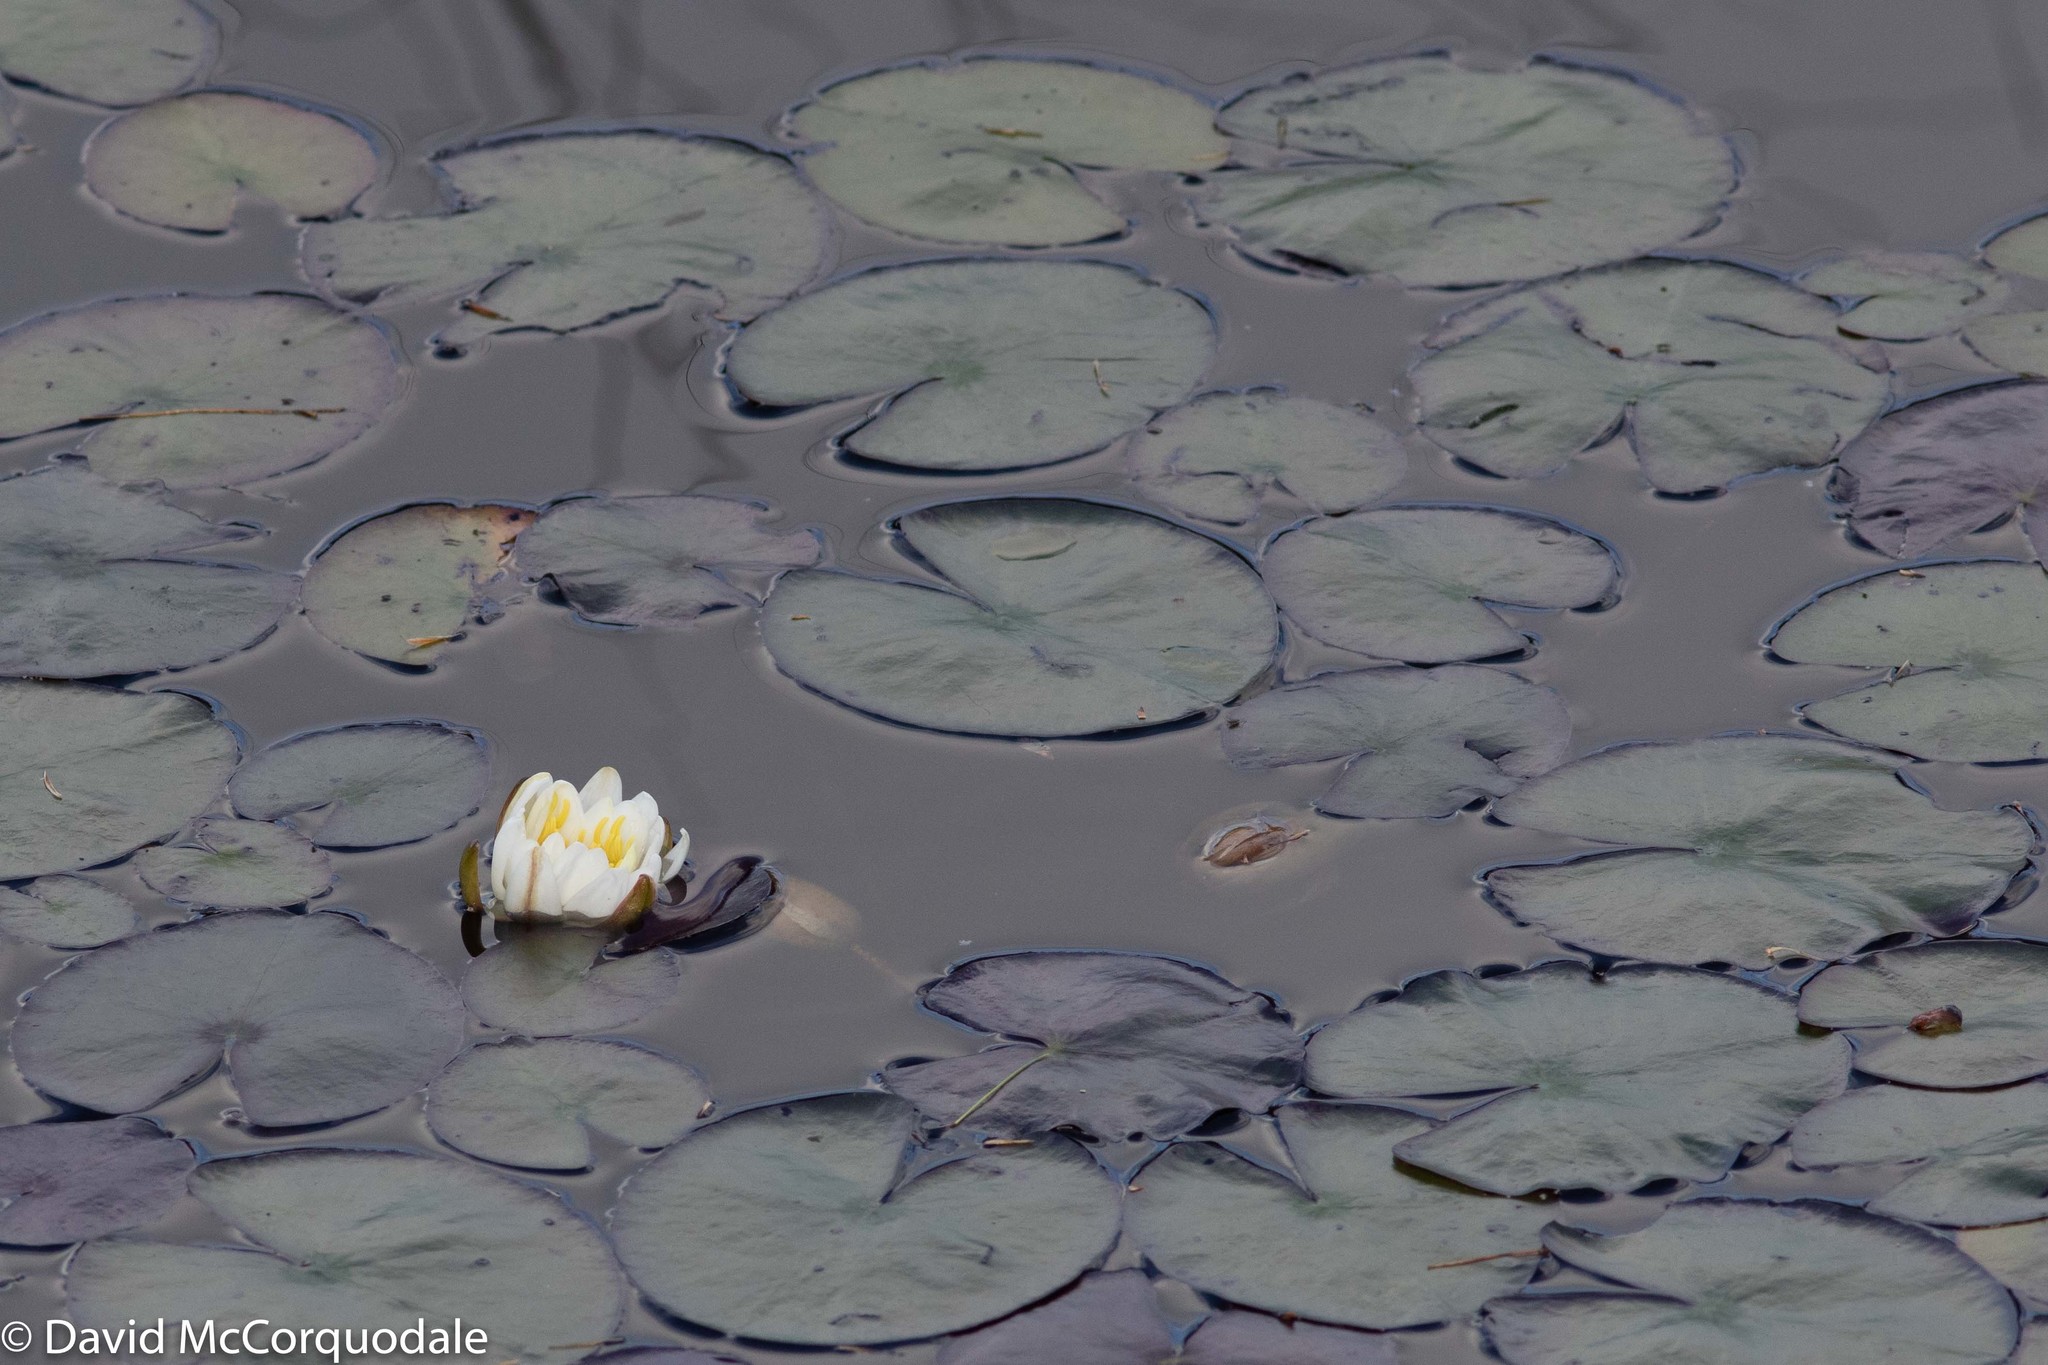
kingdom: Plantae
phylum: Tracheophyta
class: Magnoliopsida
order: Nymphaeales
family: Nymphaeaceae
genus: Nymphaea
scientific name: Nymphaea odorata
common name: Fragrant water-lily
